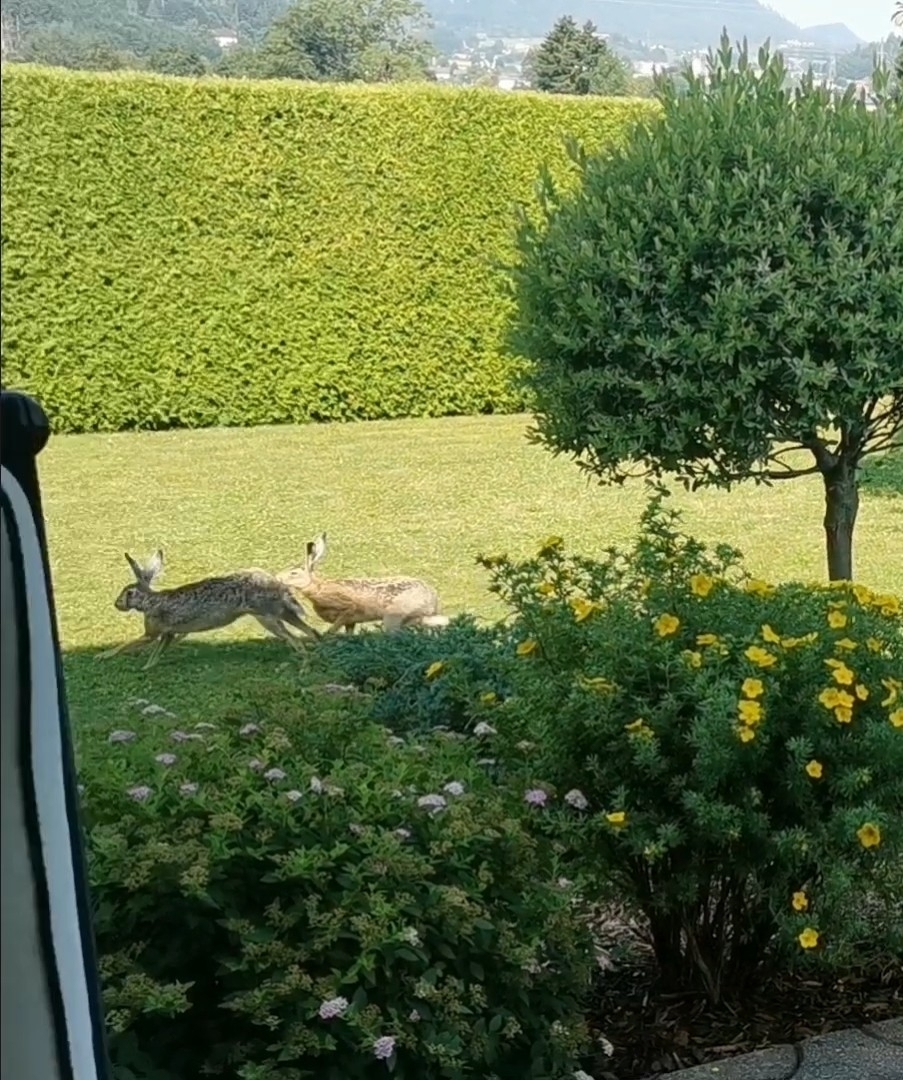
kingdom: Animalia
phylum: Chordata
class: Mammalia
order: Lagomorpha
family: Leporidae
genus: Lepus
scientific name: Lepus europaeus
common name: European hare
